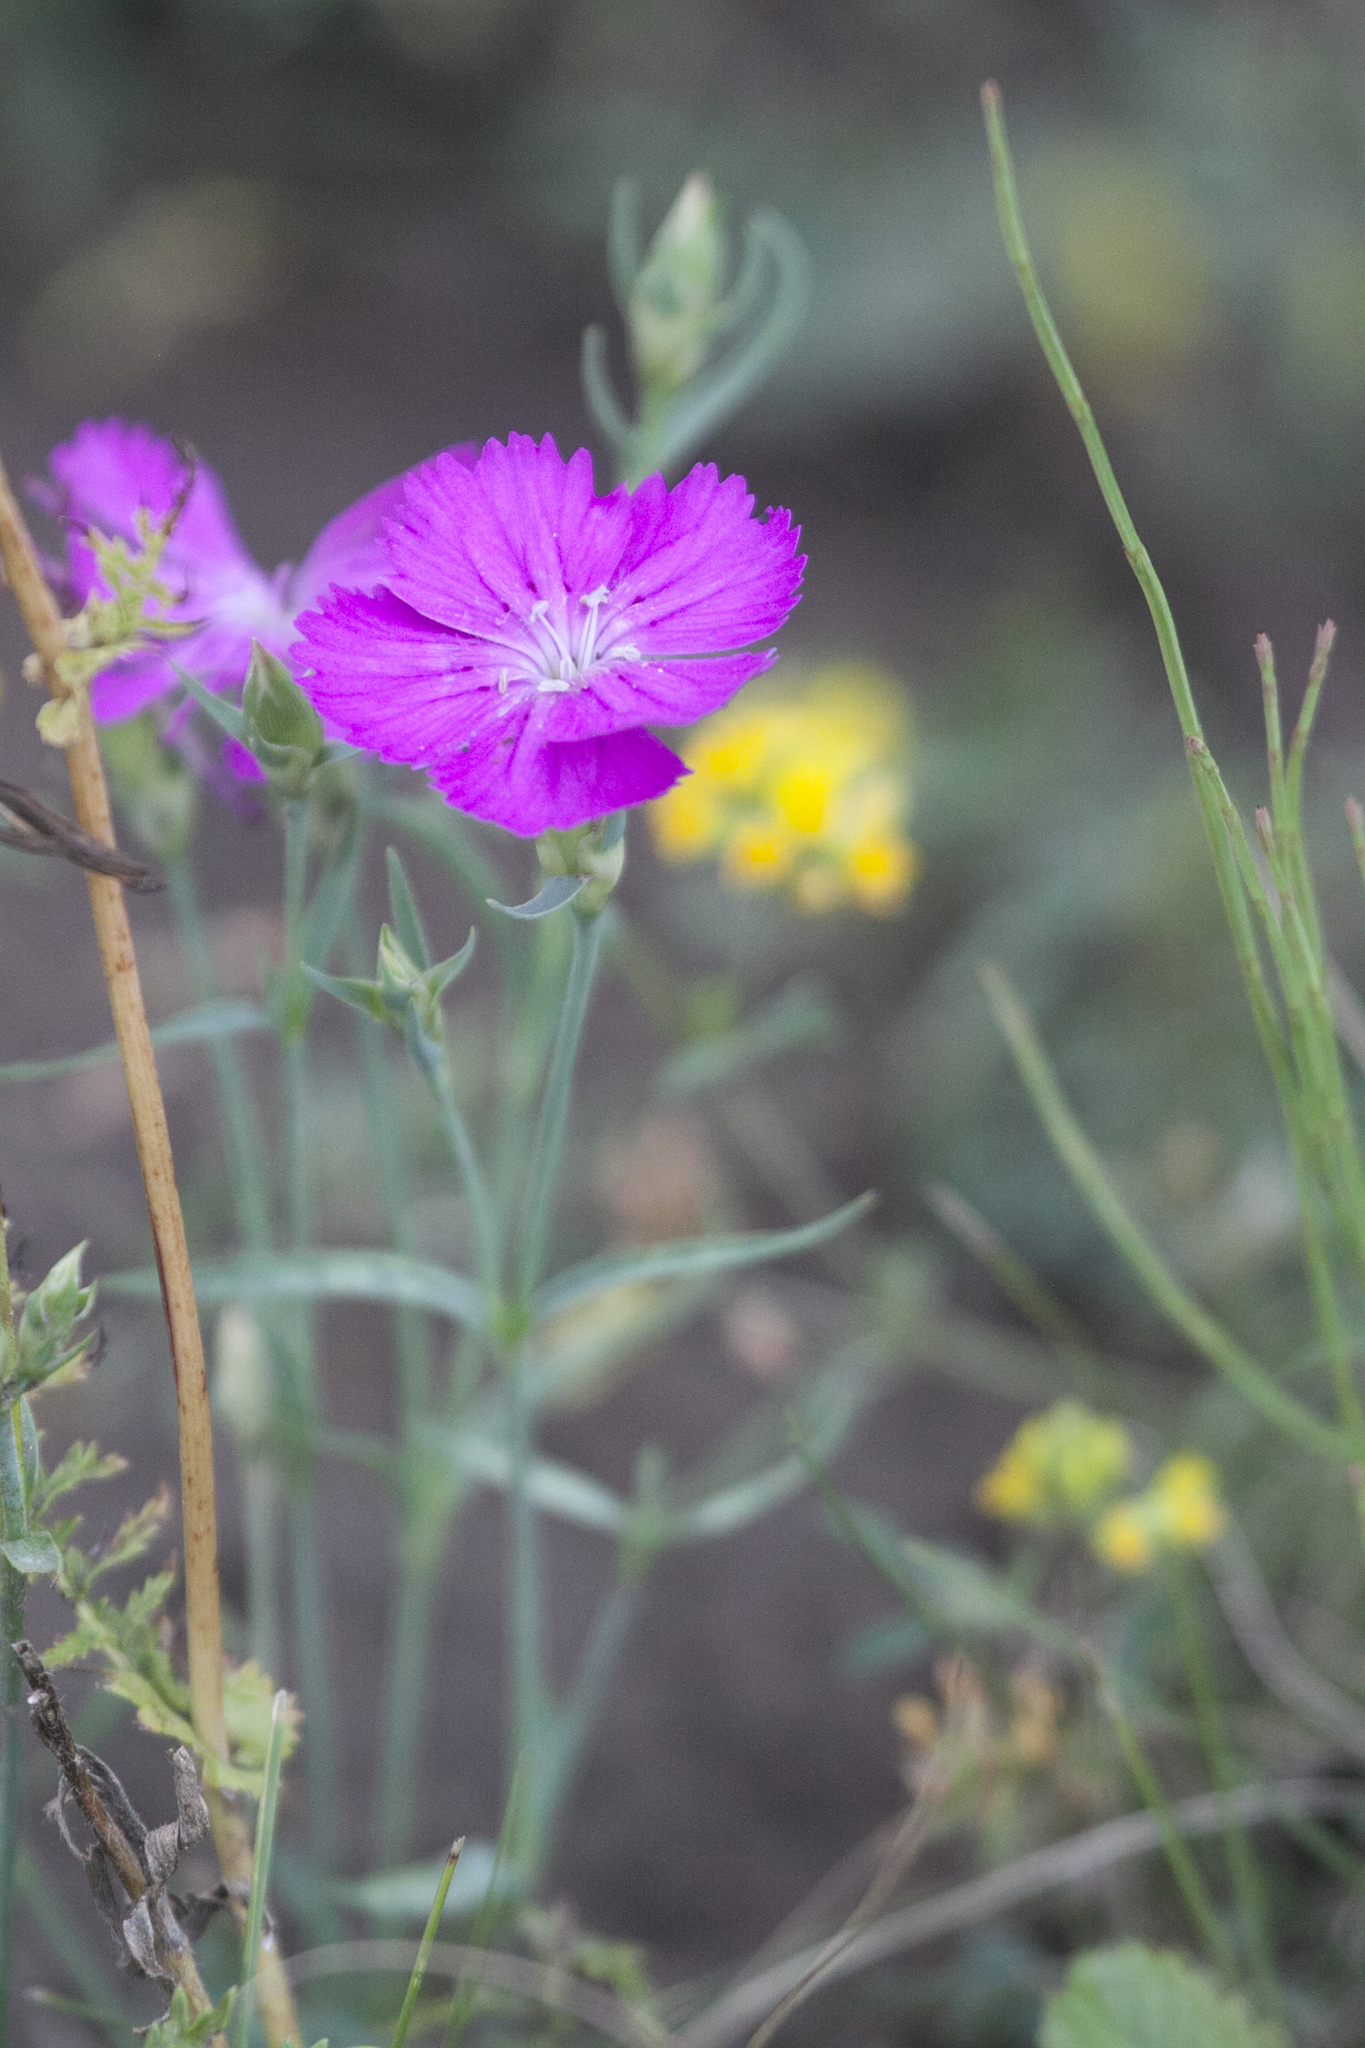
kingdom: Plantae
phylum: Tracheophyta
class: Magnoliopsida
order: Caryophyllales
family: Caryophyllaceae
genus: Dianthus
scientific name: Dianthus chinensis
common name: Rainbow pink
